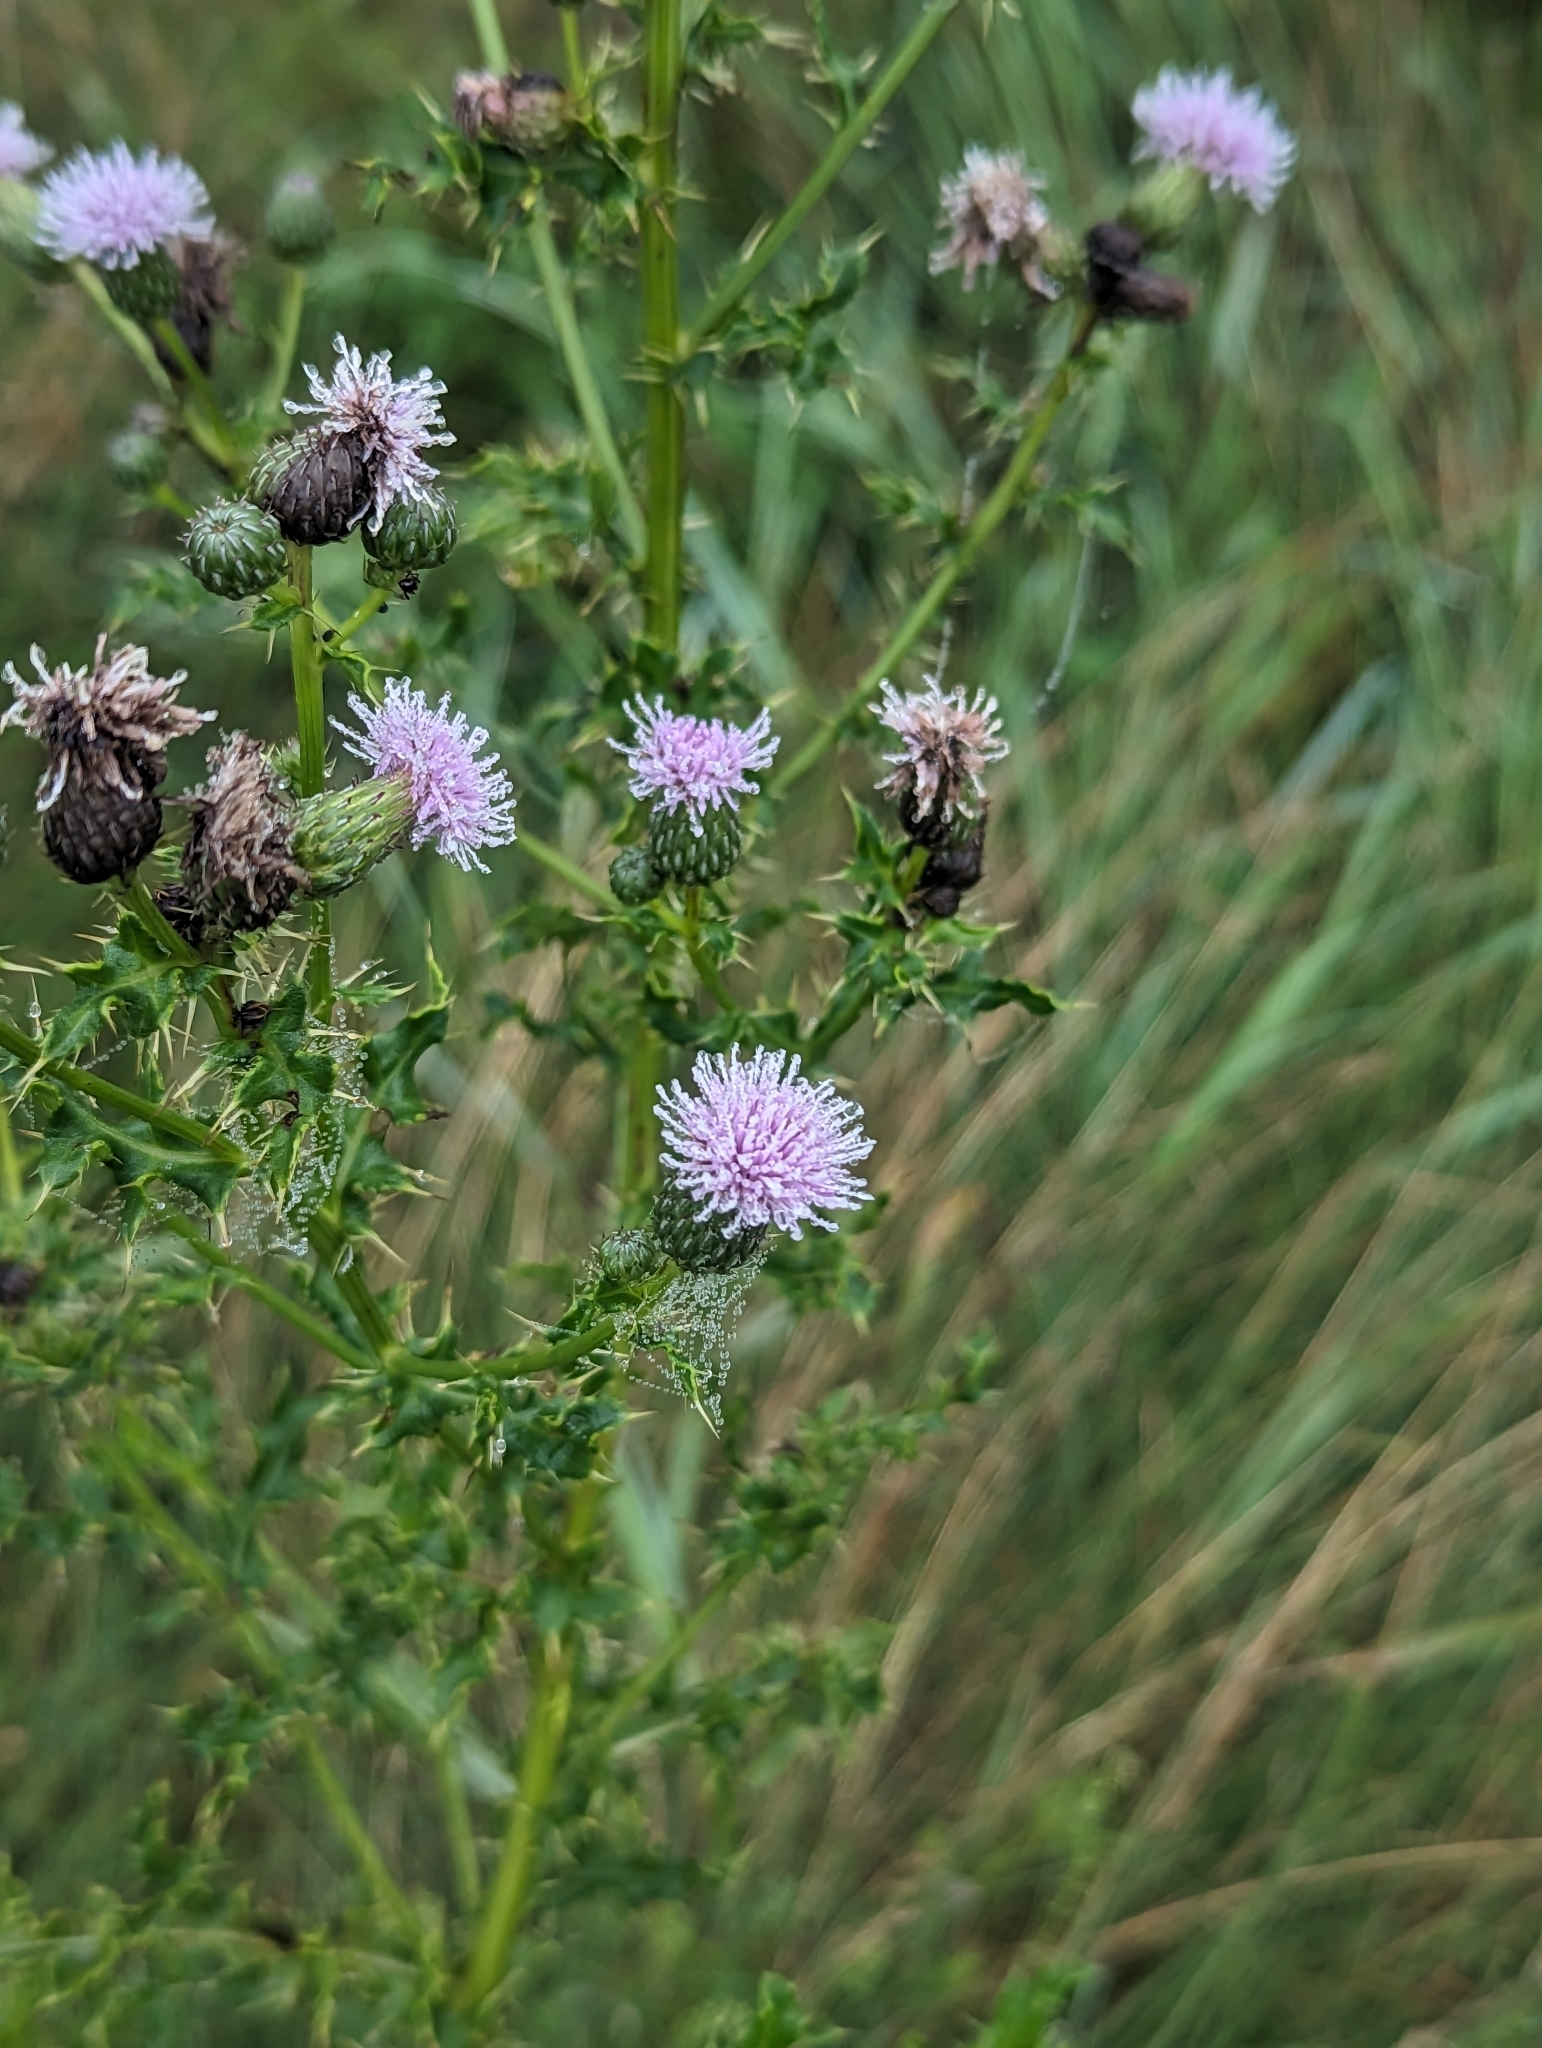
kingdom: Plantae
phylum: Tracheophyta
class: Magnoliopsida
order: Asterales
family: Asteraceae
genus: Cirsium
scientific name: Cirsium arvense
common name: Creeping thistle
